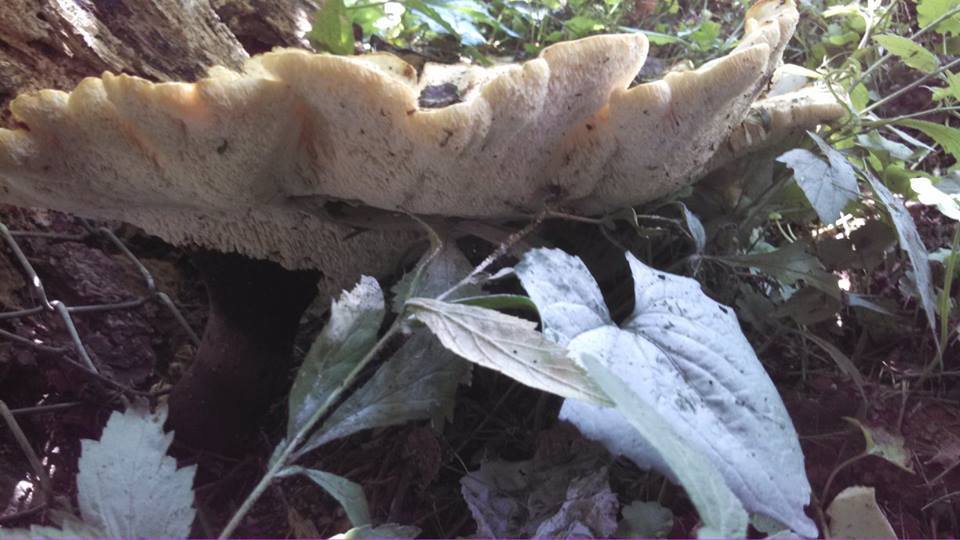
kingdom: Fungi
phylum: Basidiomycota
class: Agaricomycetes
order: Polyporales
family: Polyporaceae
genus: Cerioporus
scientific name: Cerioporus squamosus
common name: Dryad's saddle
